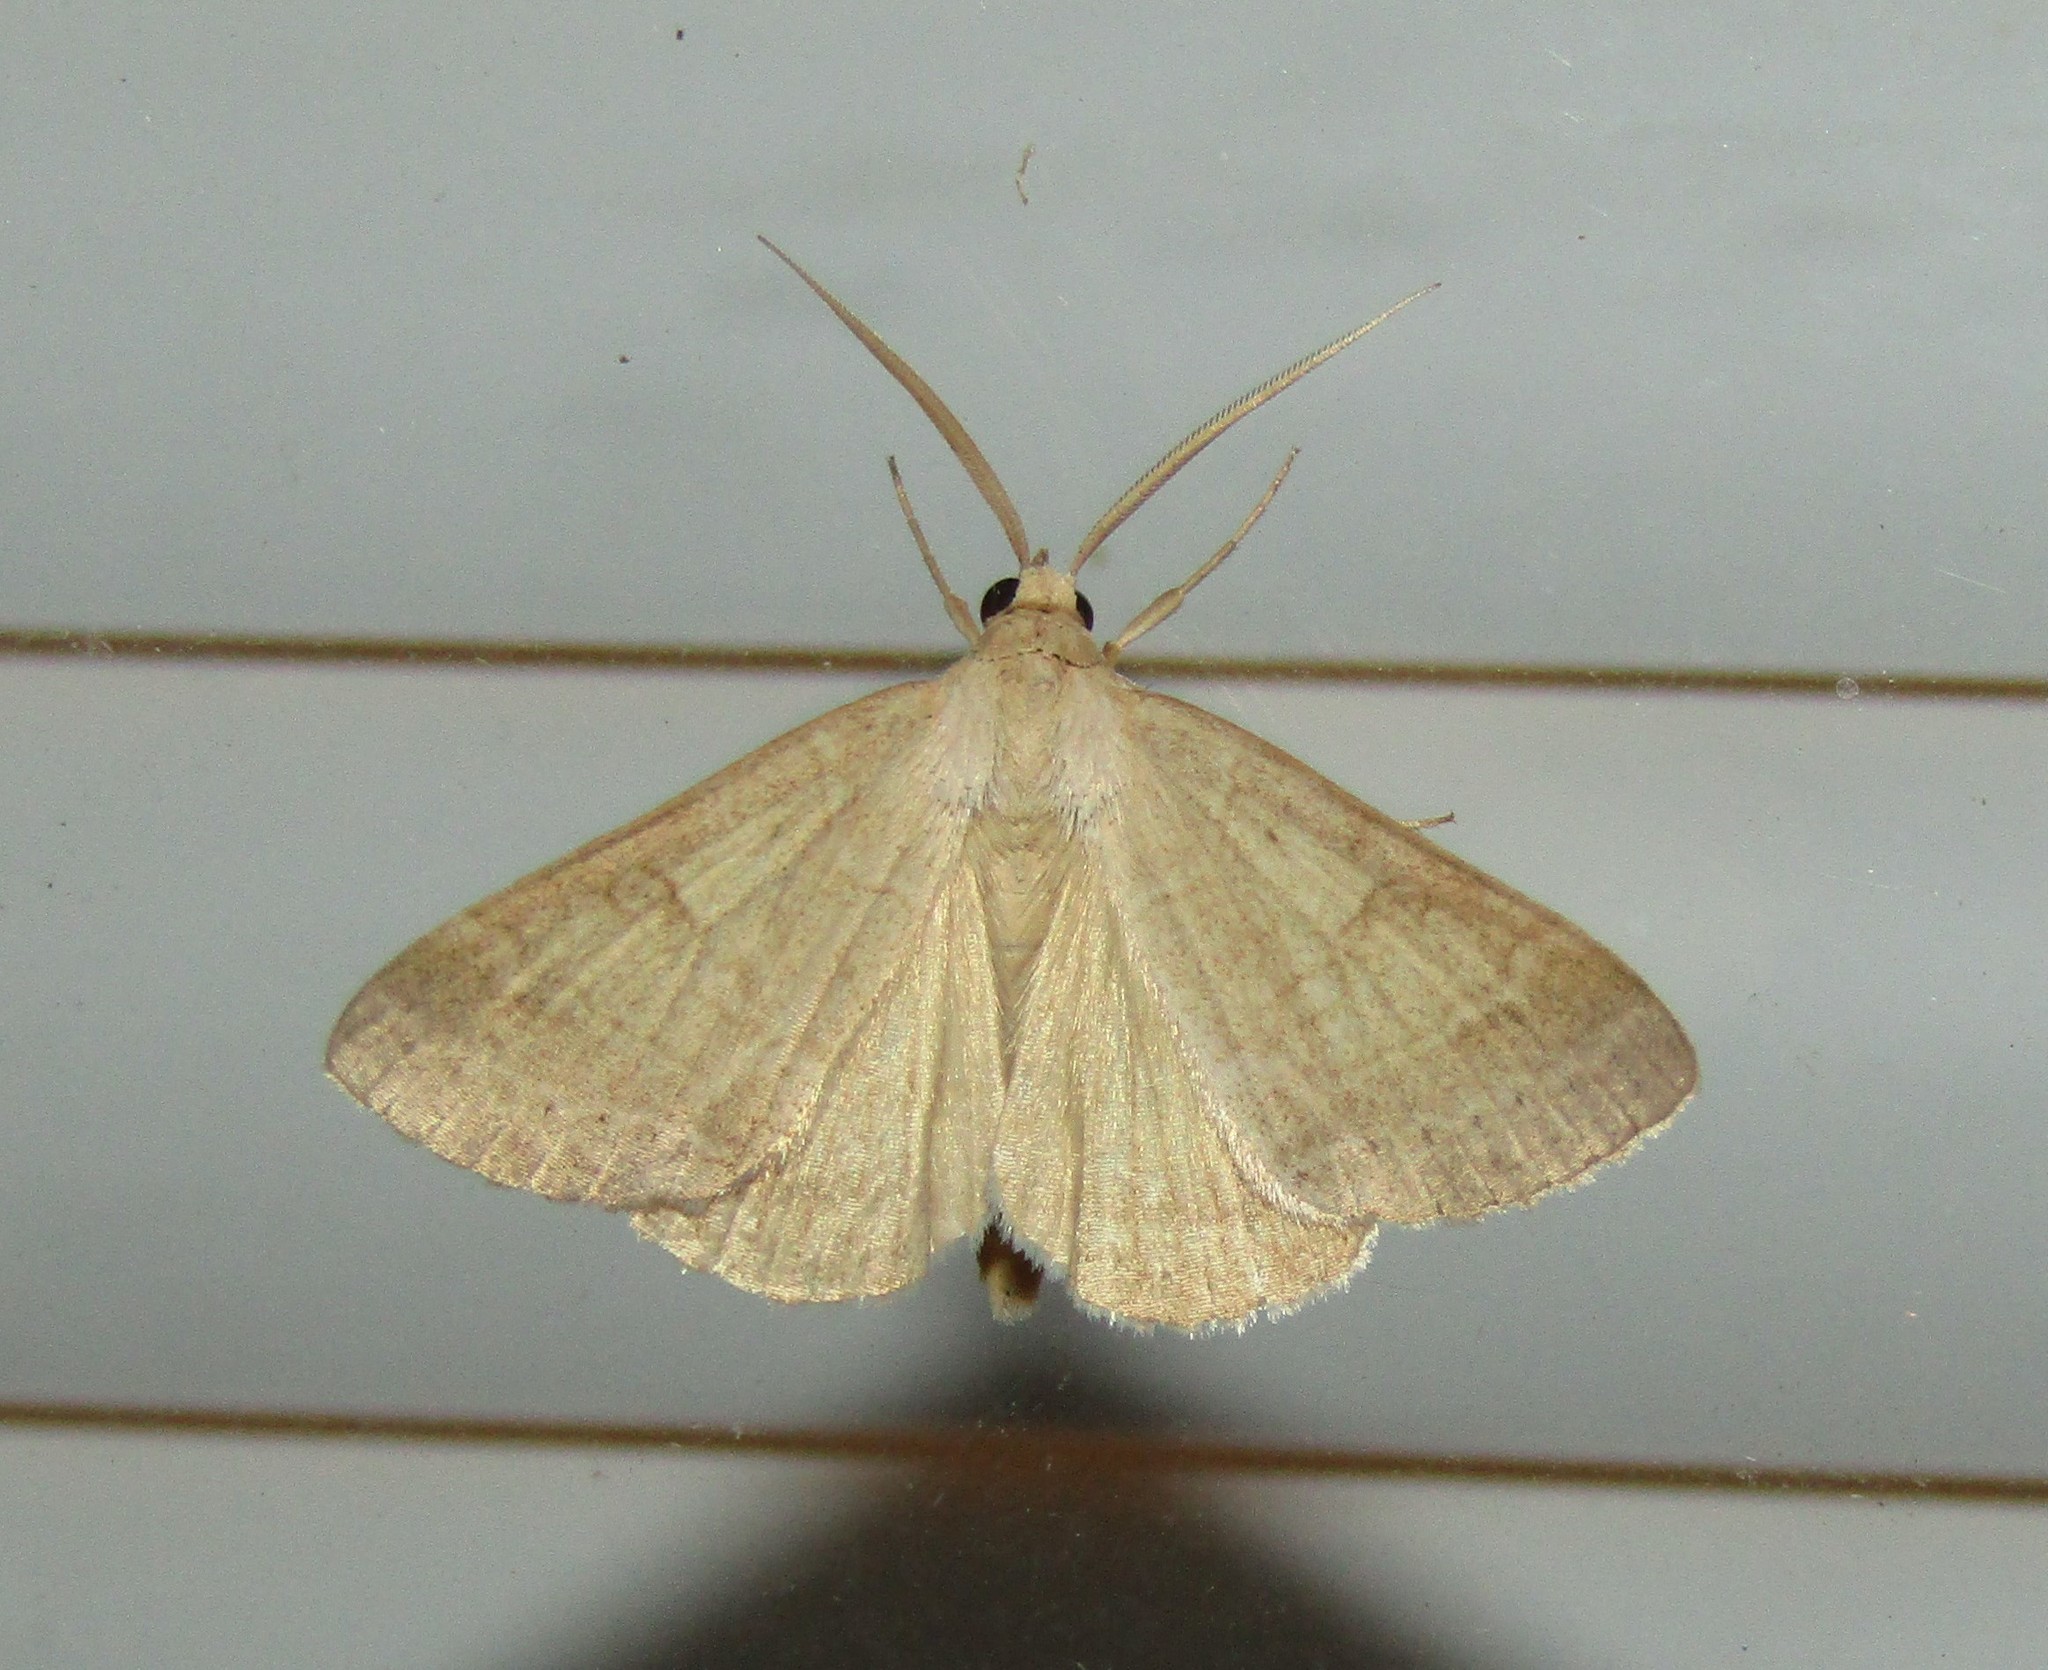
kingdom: Animalia
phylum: Arthropoda
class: Insecta
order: Lepidoptera
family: Erebidae
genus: Caenurgia
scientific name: Caenurgia chloropha
